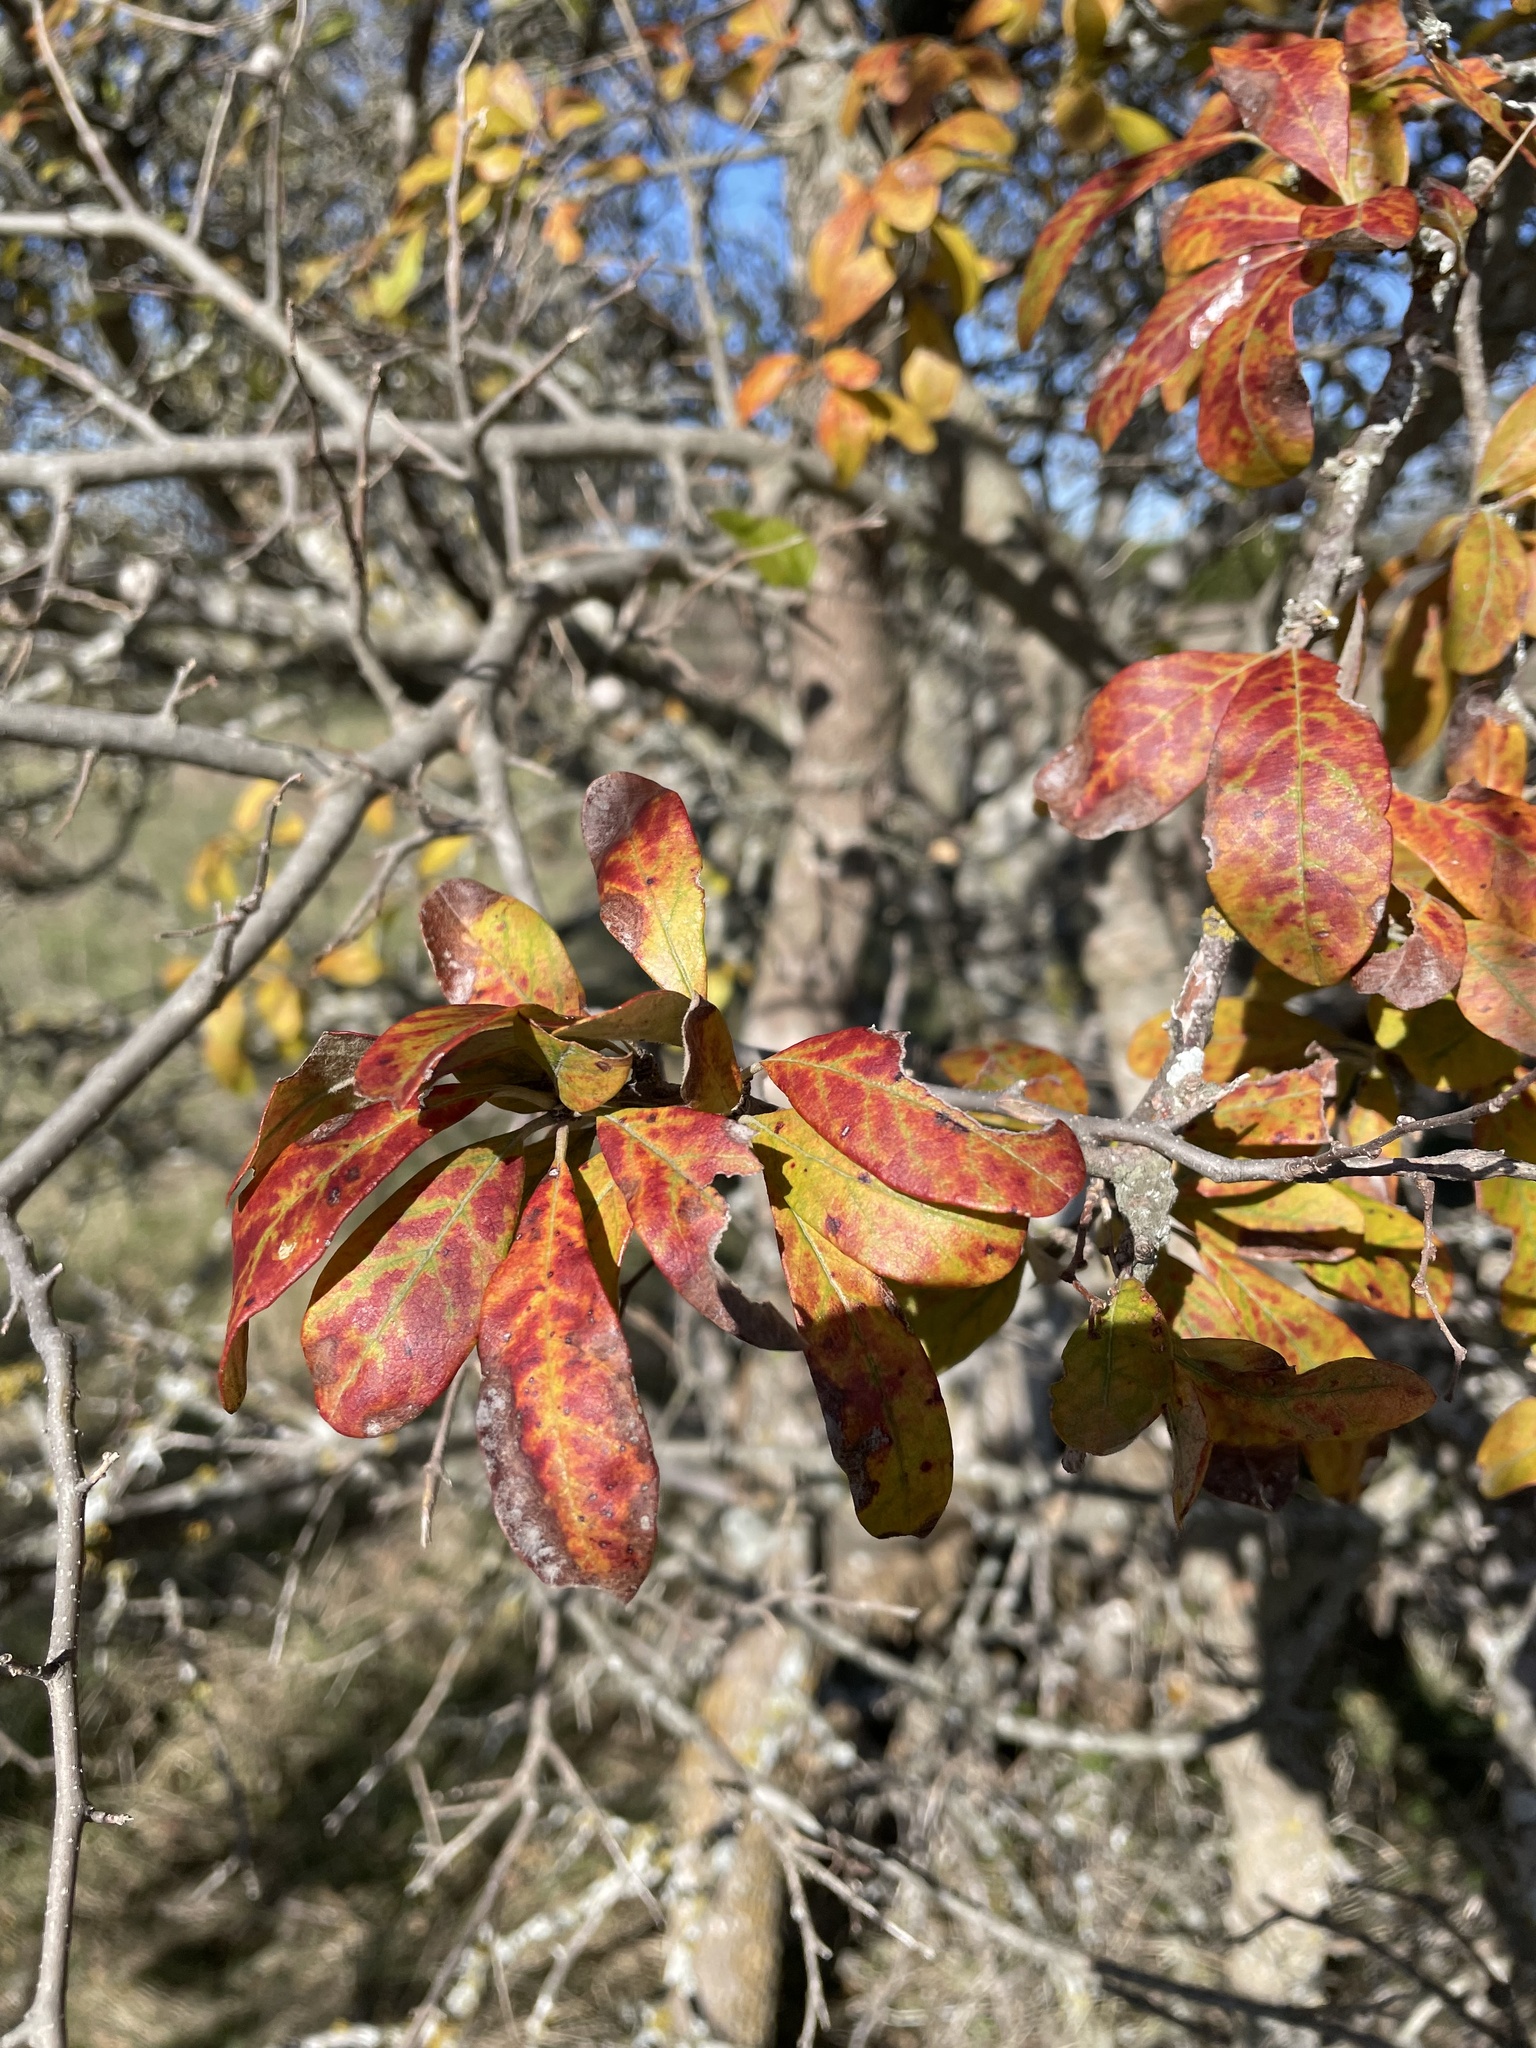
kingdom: Plantae
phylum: Tracheophyta
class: Magnoliopsida
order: Ericales
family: Sapotaceae
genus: Sideroxylon
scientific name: Sideroxylon lanuginosum
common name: Chittamwood
